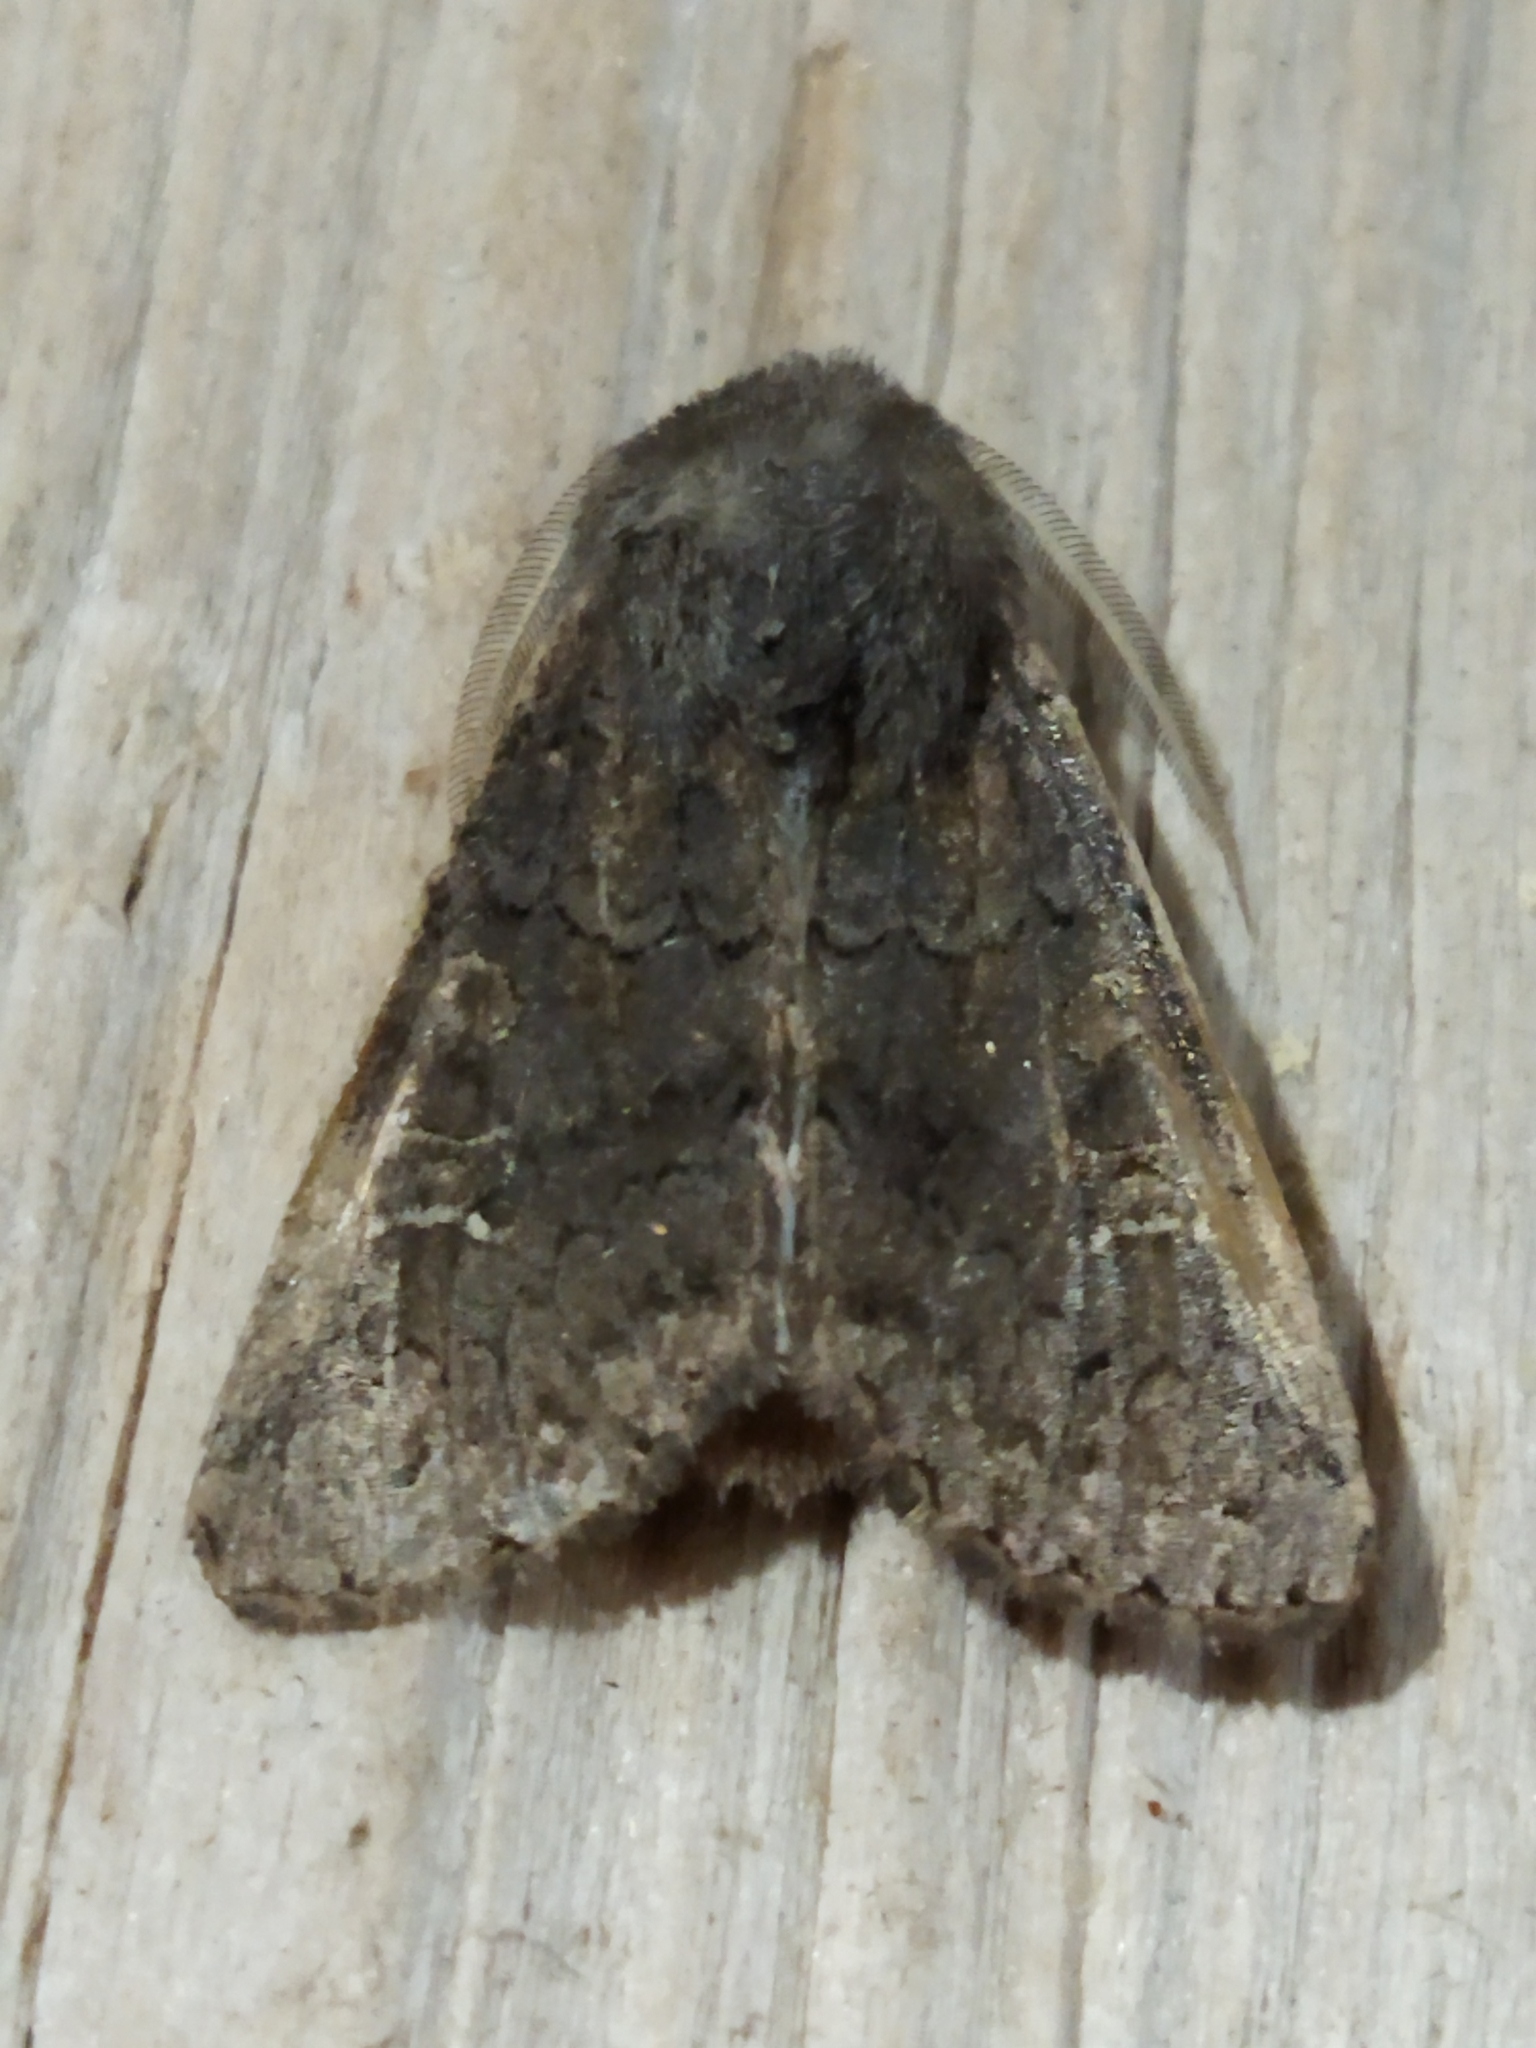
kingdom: Animalia
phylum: Arthropoda
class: Insecta
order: Lepidoptera
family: Noctuidae
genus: Aporophyla
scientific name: Aporophyla lutulenta
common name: Deep-brown dart
